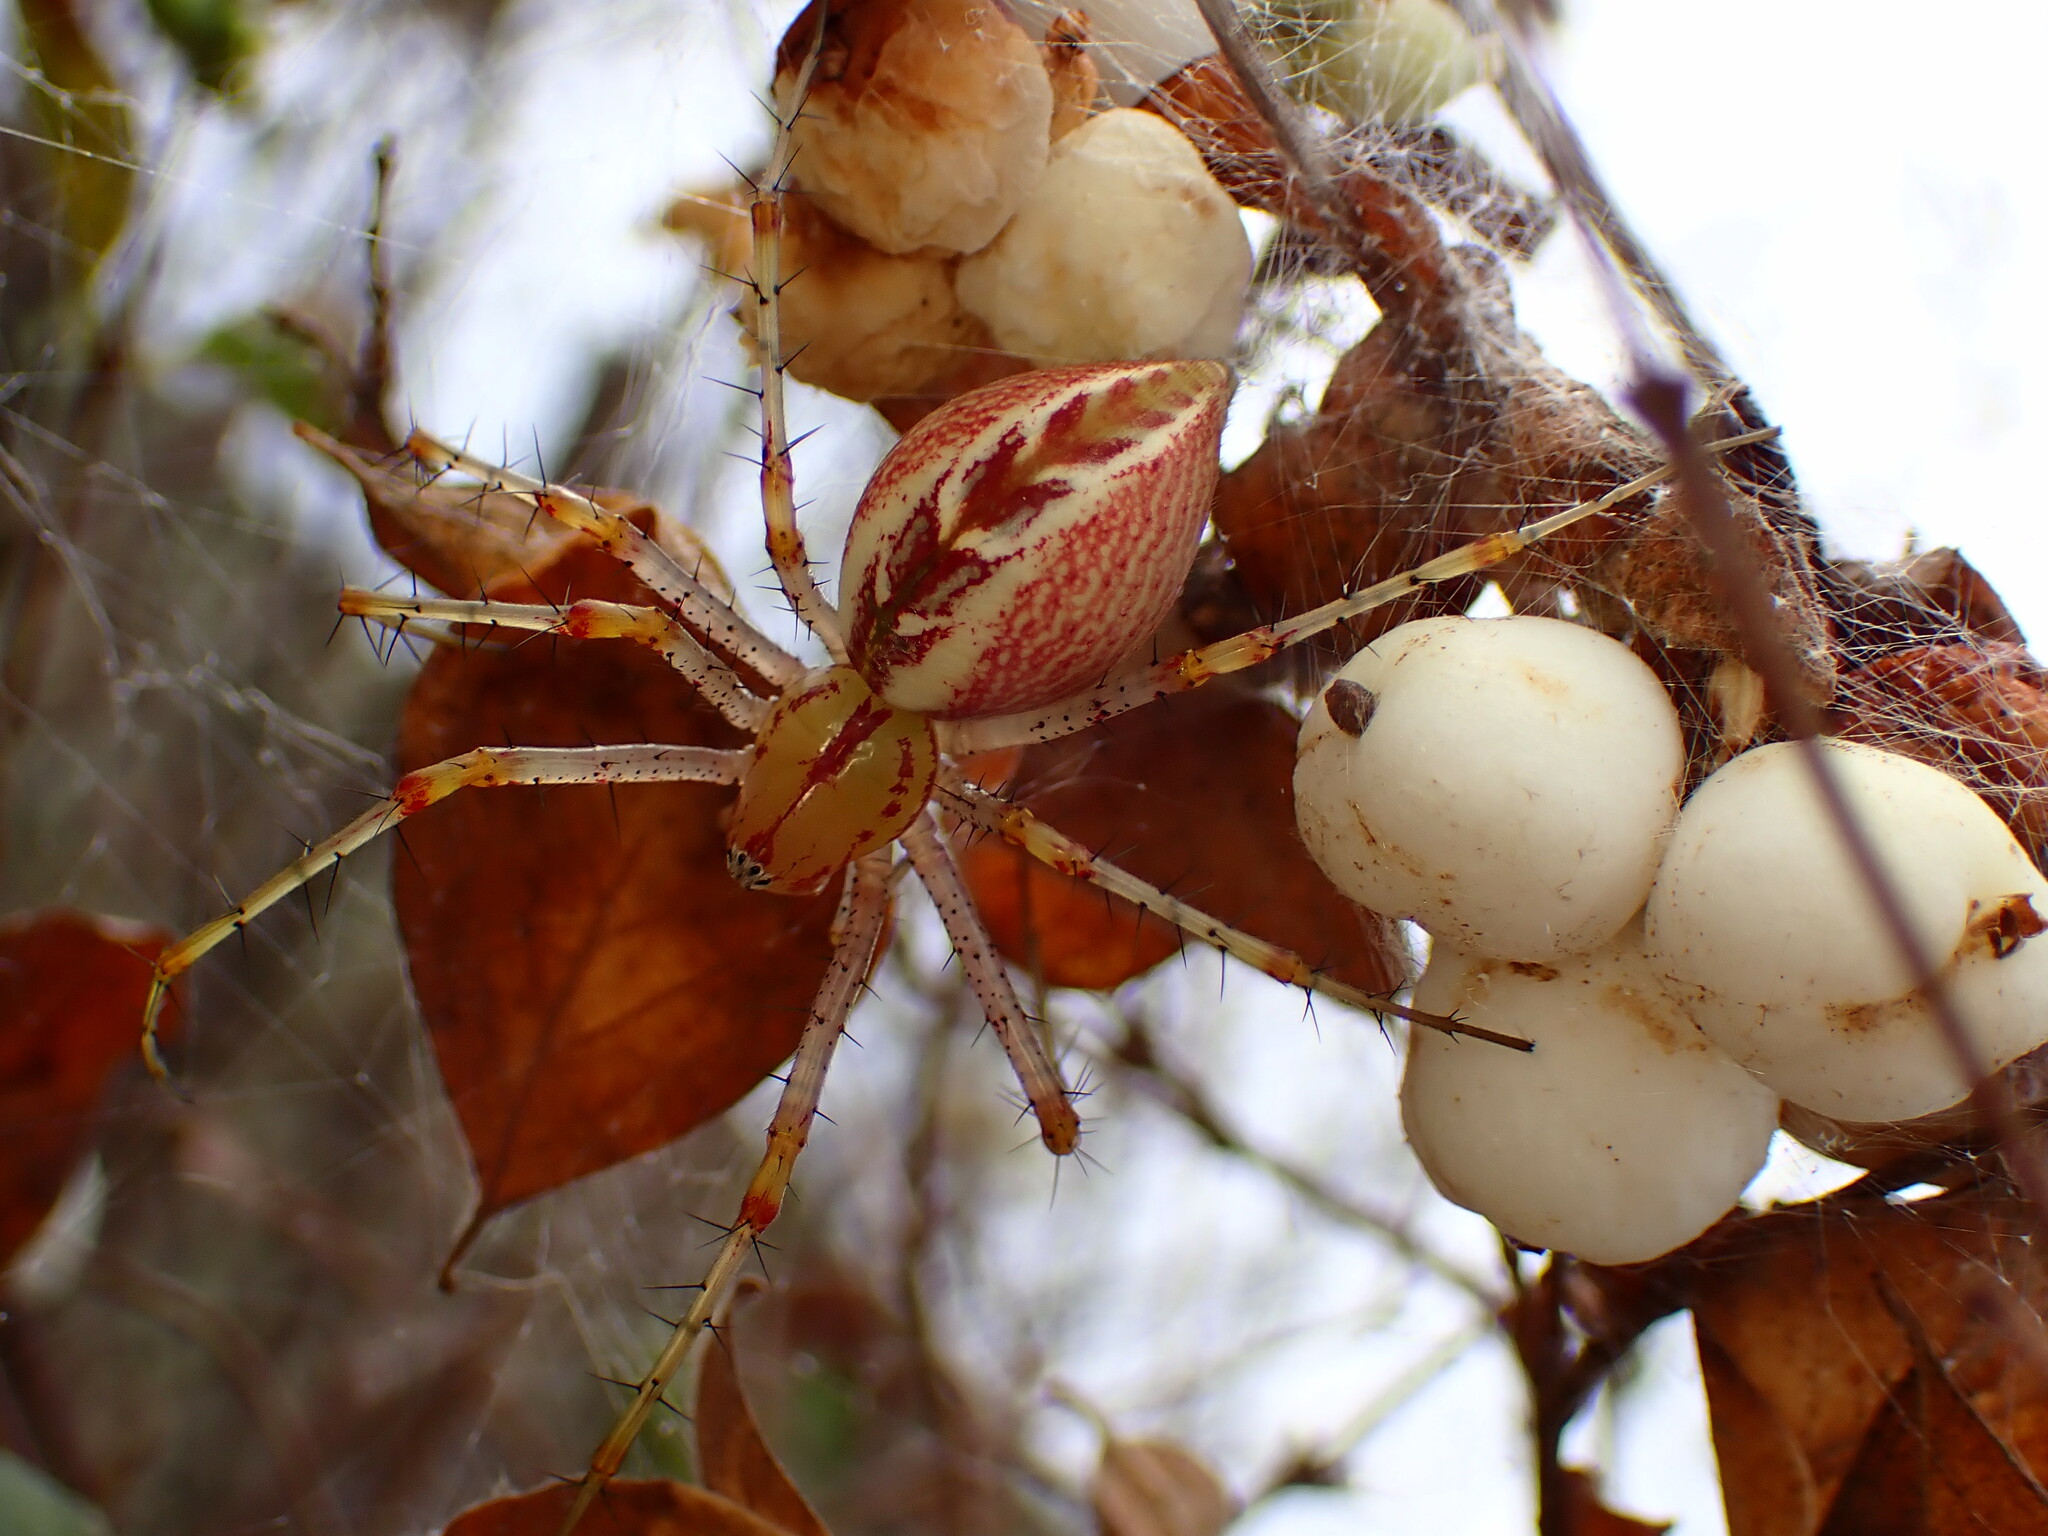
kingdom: Animalia
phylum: Arthropoda
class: Arachnida
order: Araneae
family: Oxyopidae
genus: Peucetia
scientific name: Peucetia viridans
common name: Lynx spiders
